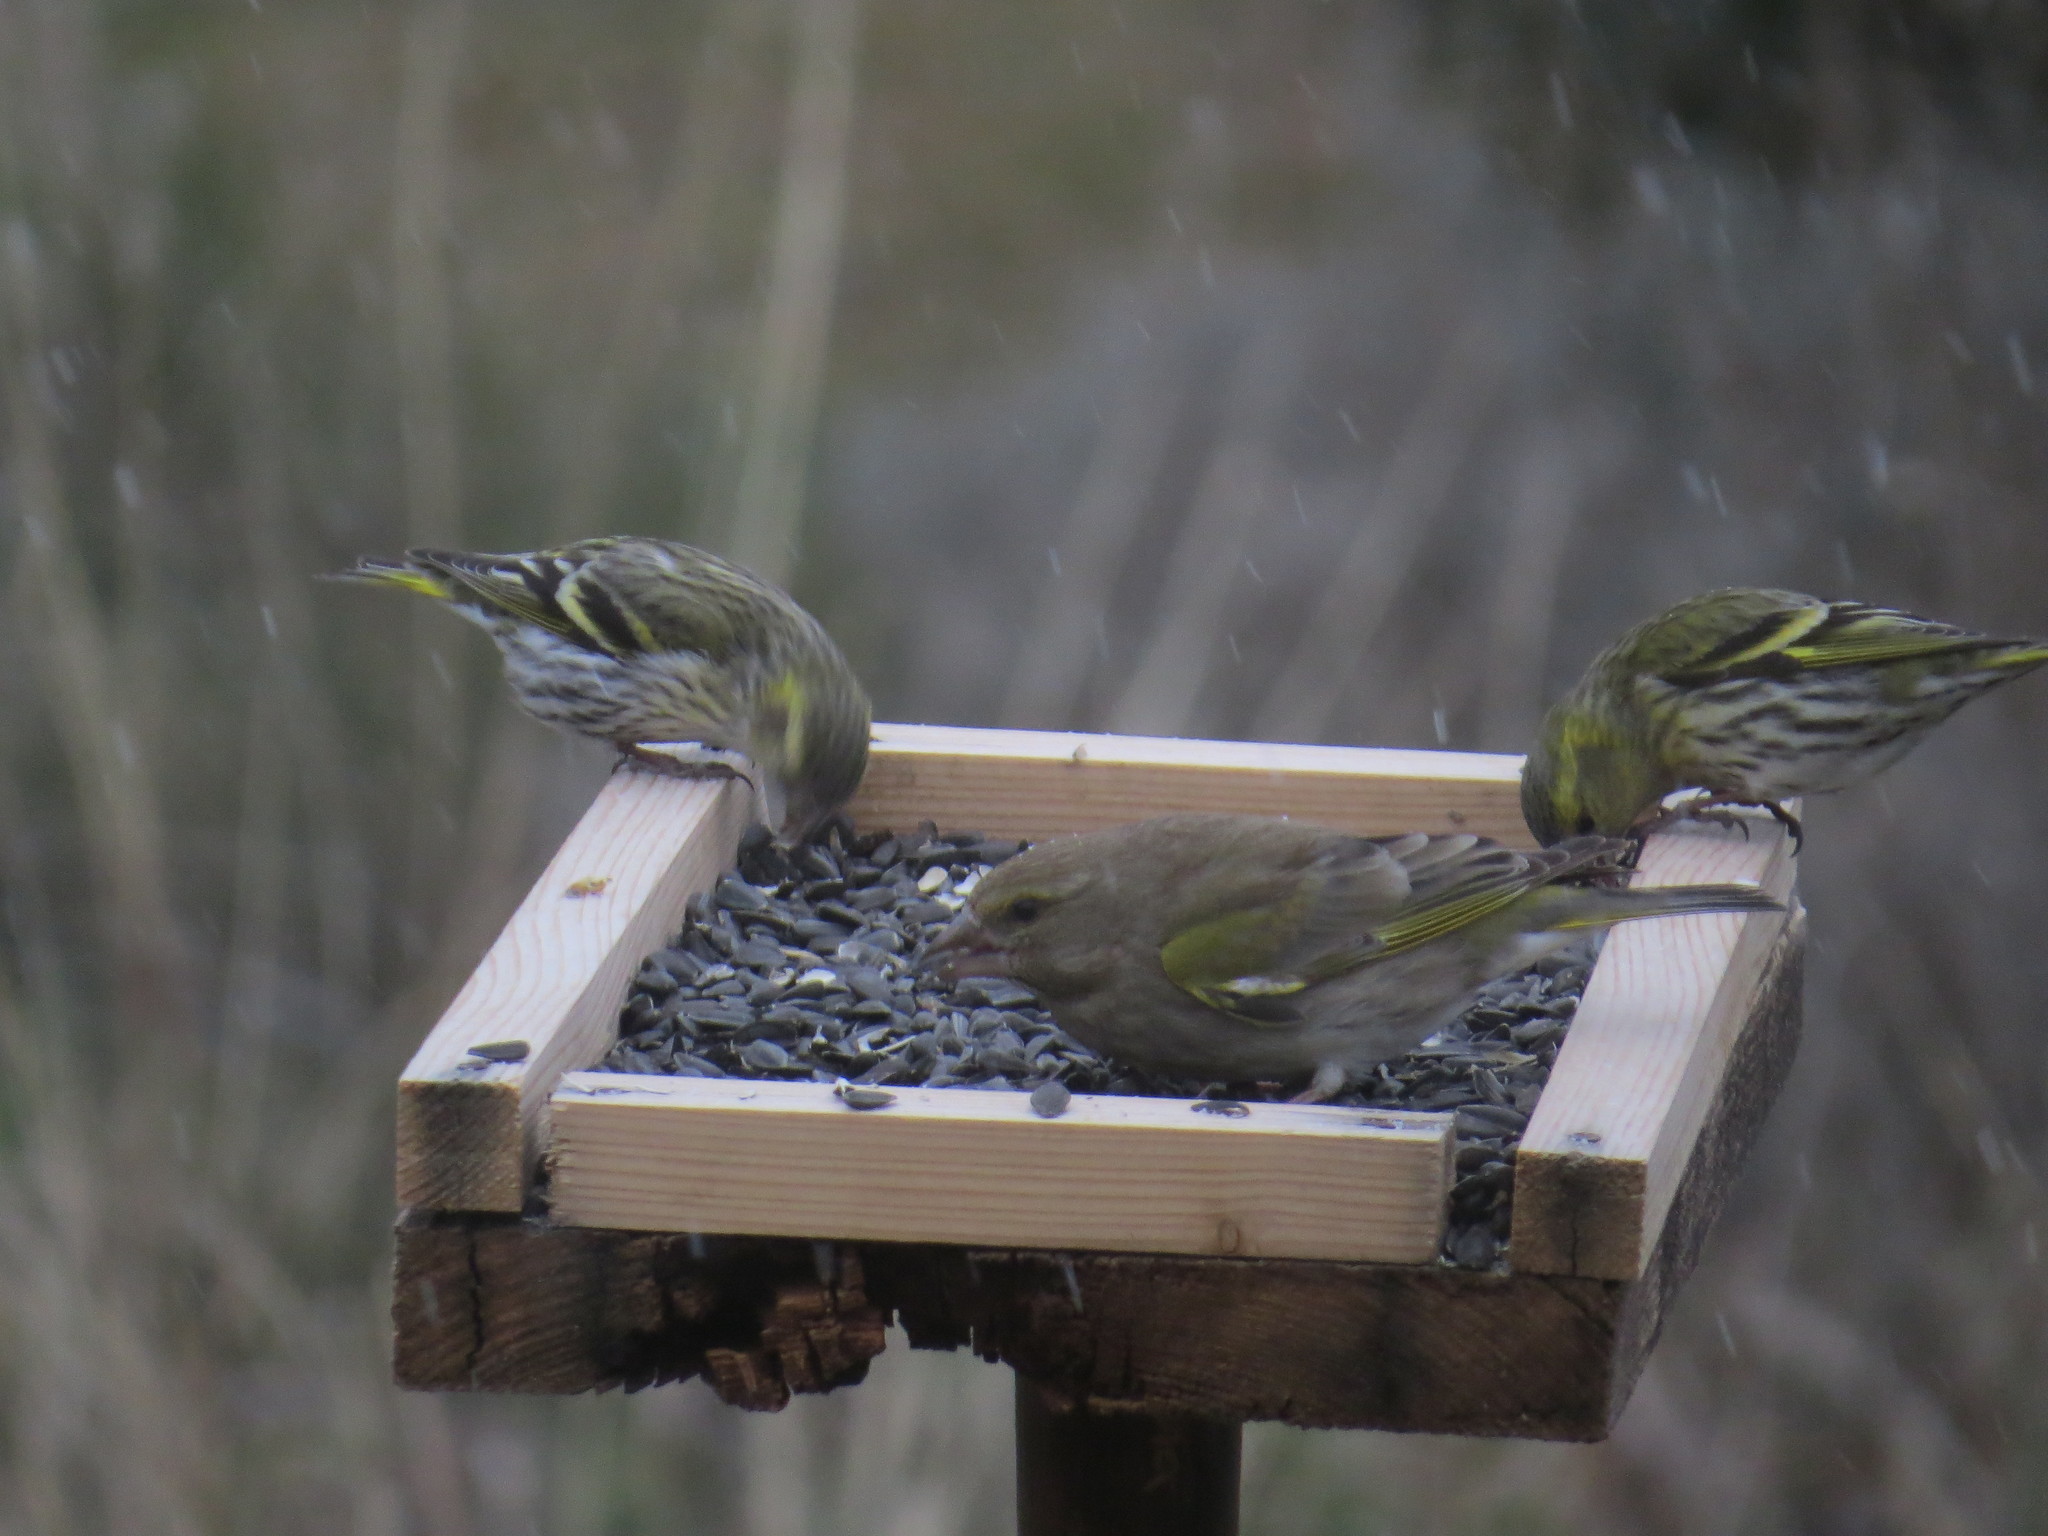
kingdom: Plantae
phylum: Tracheophyta
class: Liliopsida
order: Poales
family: Poaceae
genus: Chloris
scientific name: Chloris chloris
